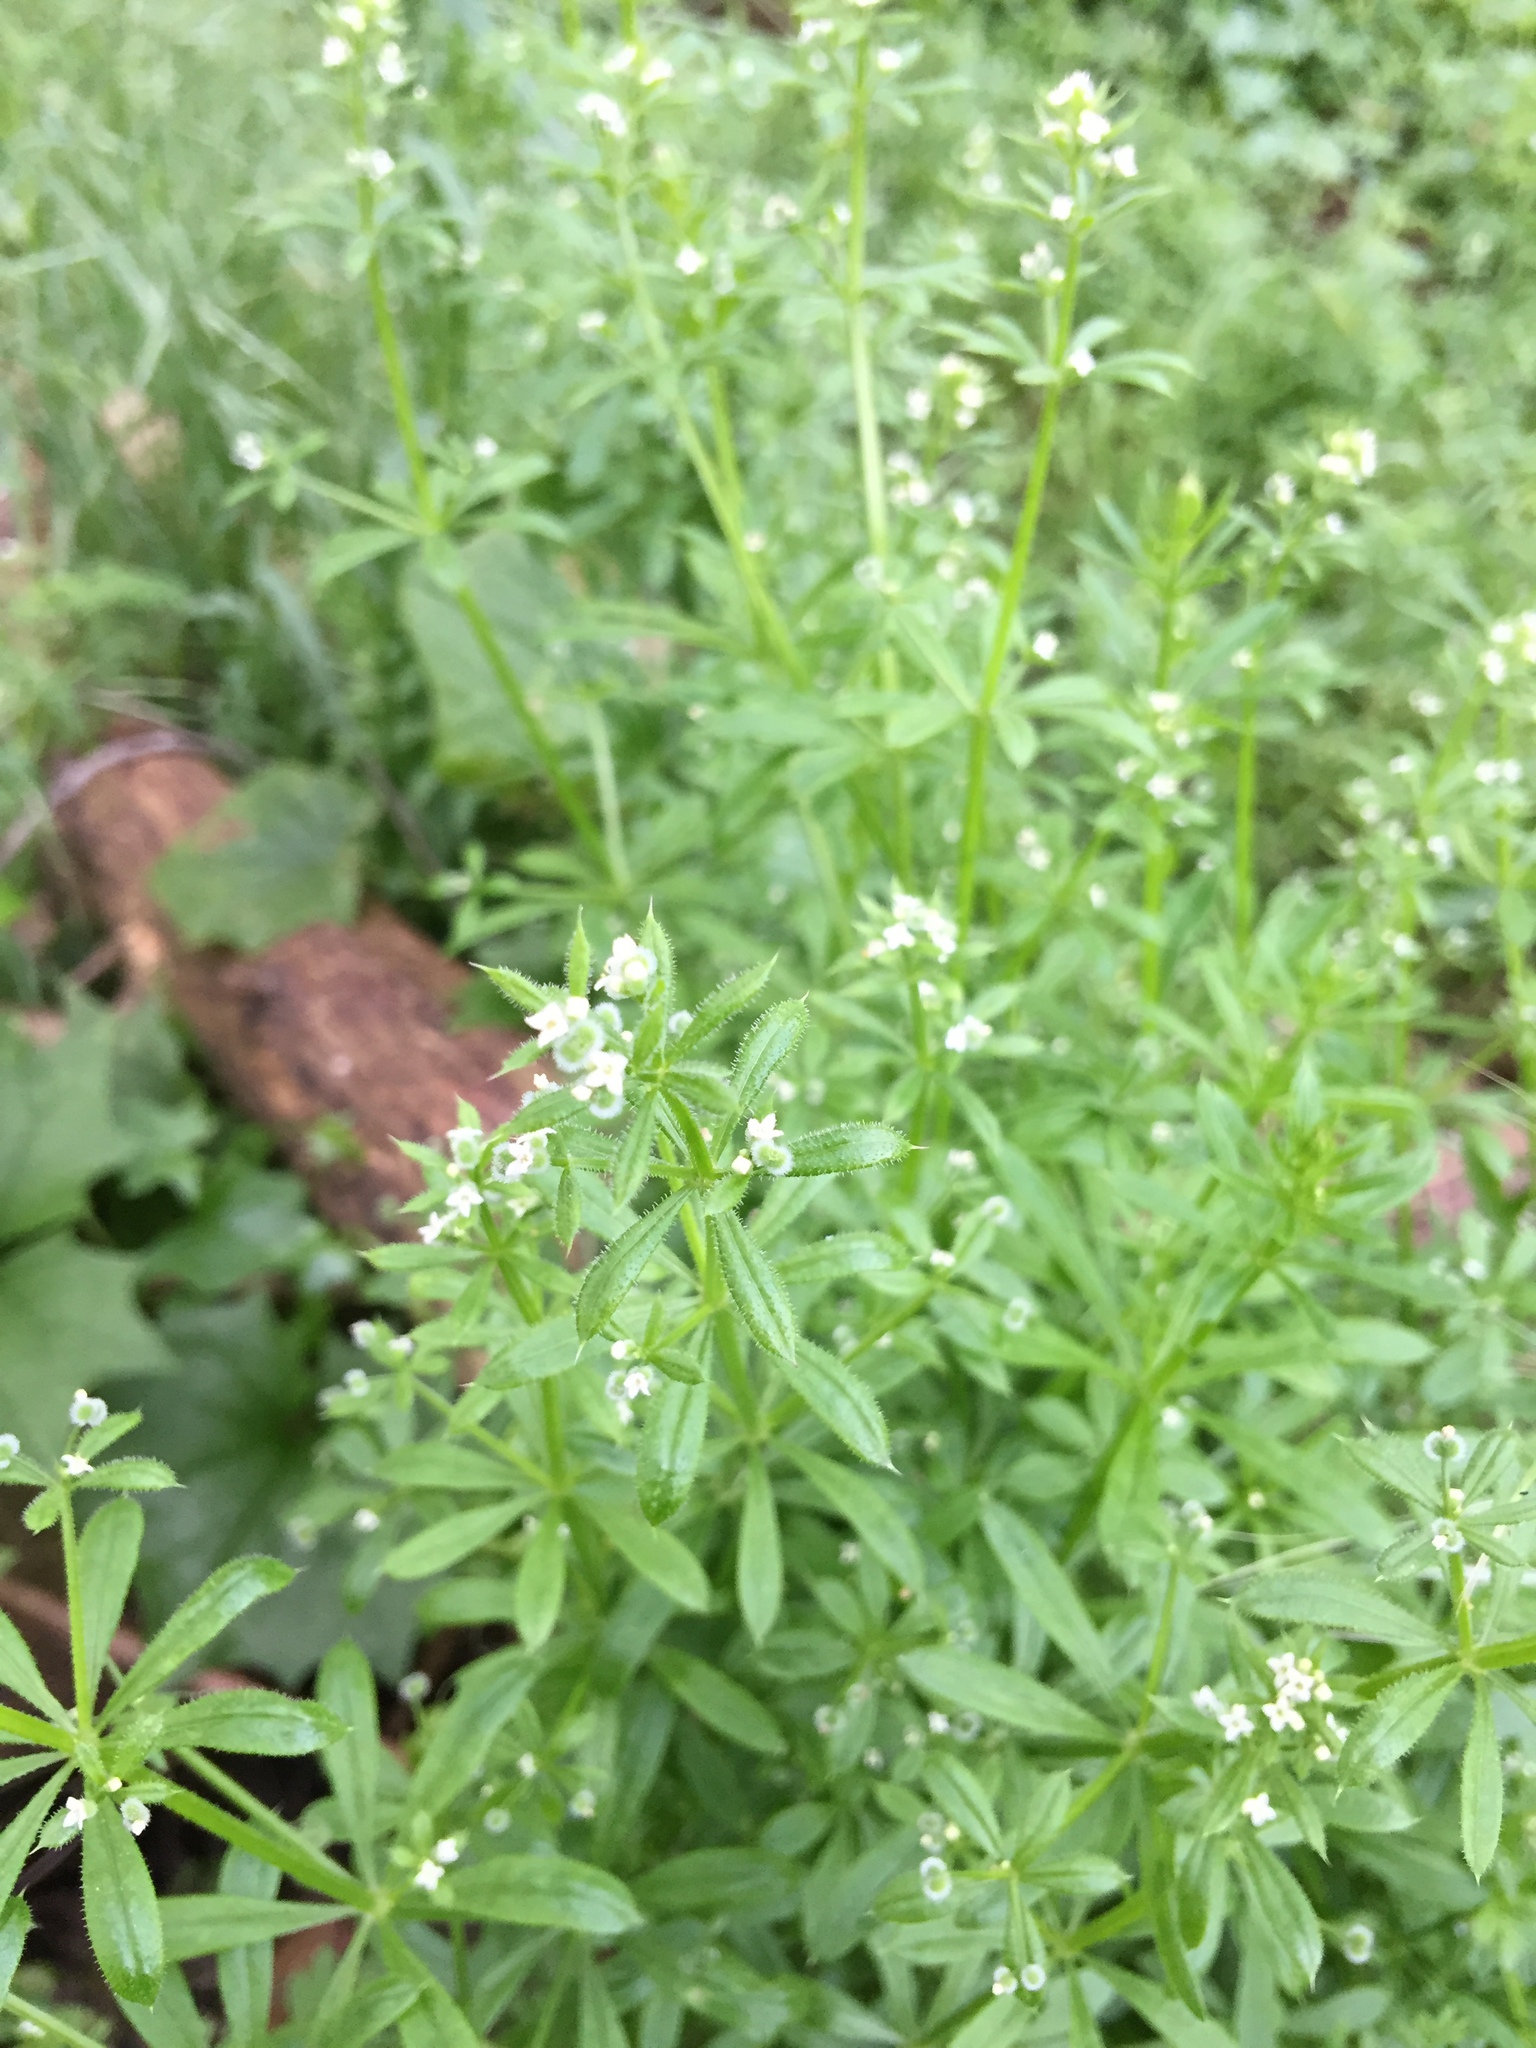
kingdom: Plantae
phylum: Tracheophyta
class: Magnoliopsida
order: Gentianales
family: Rubiaceae
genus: Galium
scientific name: Galium aparine
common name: Cleavers
